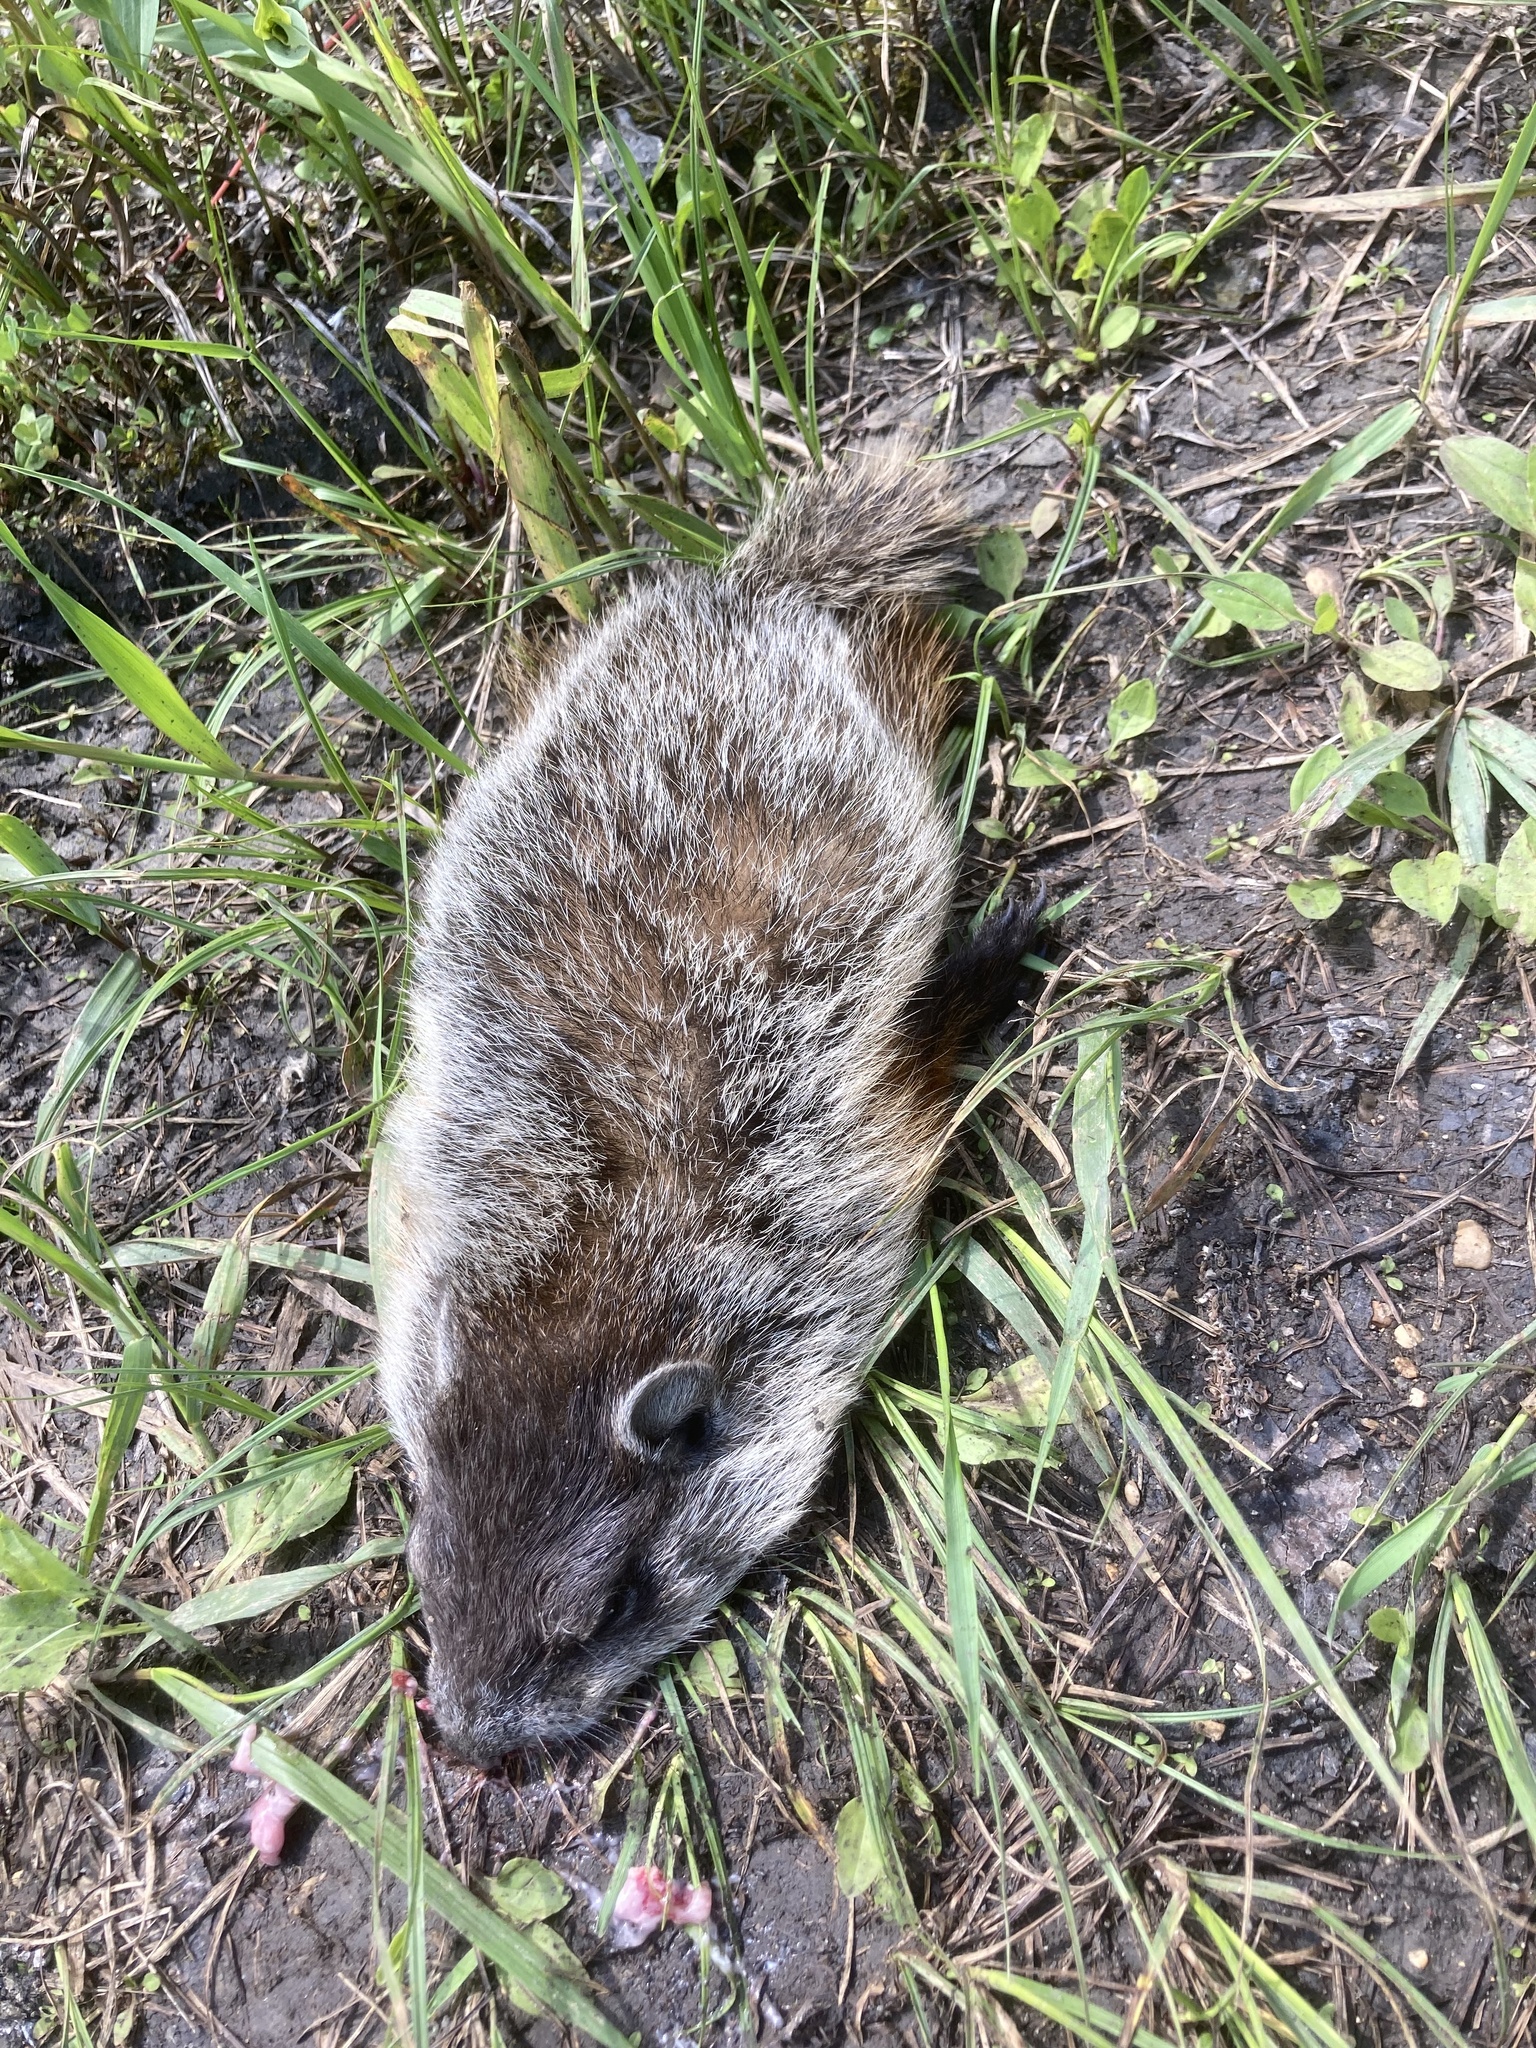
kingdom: Animalia
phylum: Chordata
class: Mammalia
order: Rodentia
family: Sciuridae
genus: Marmota
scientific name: Marmota monax
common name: Groundhog
